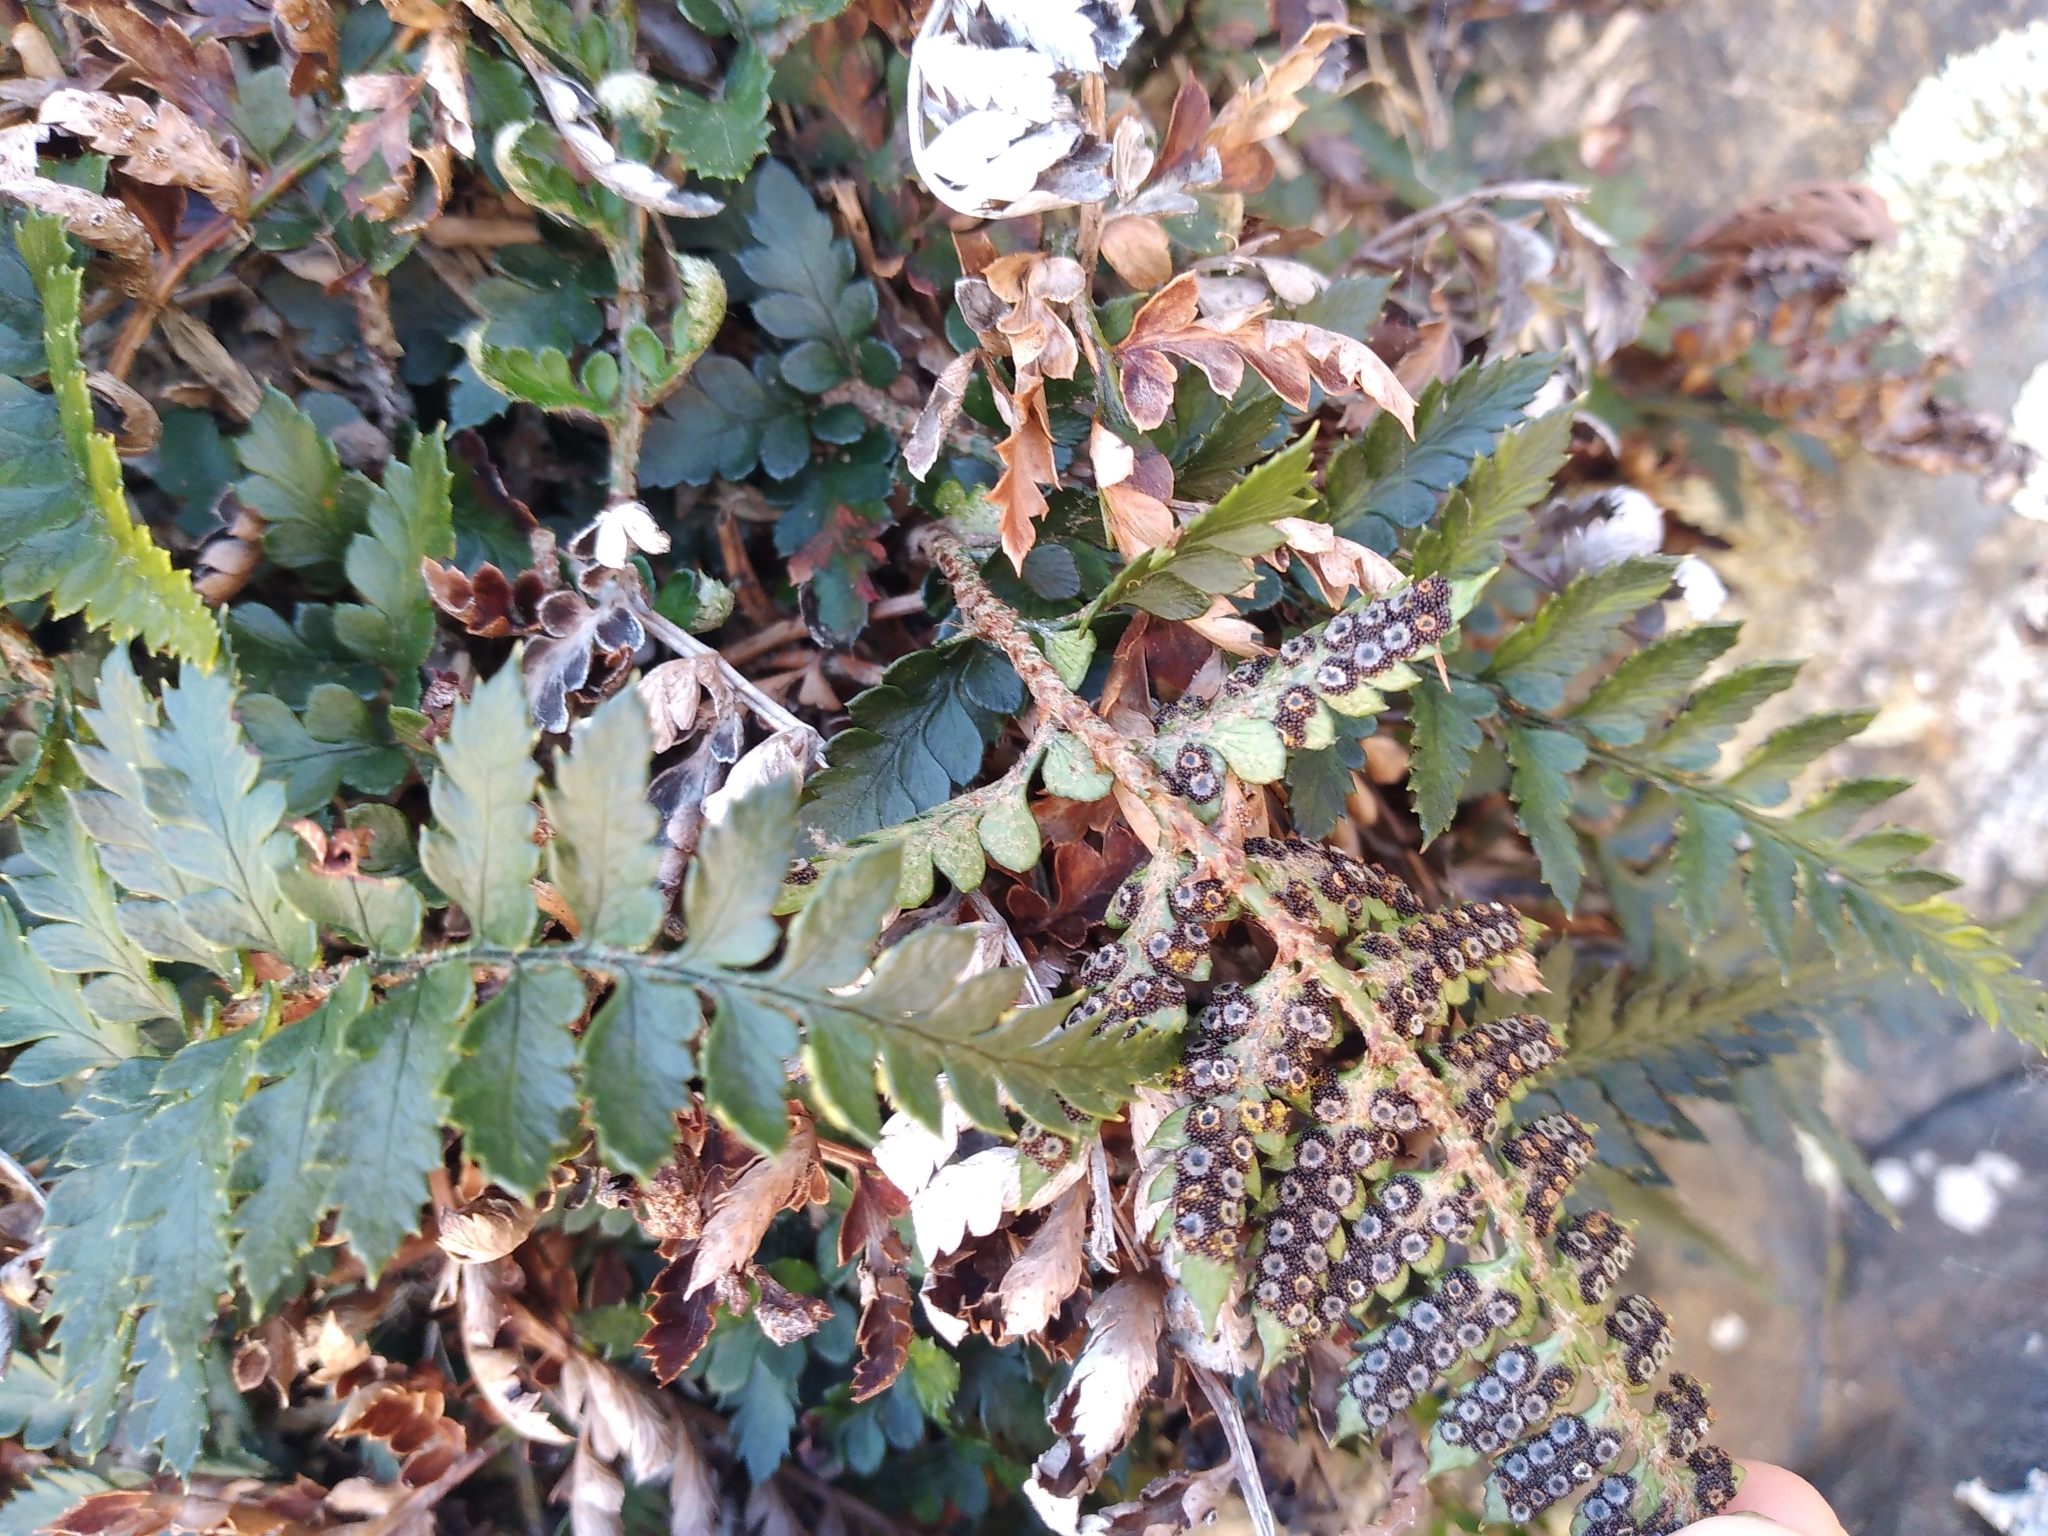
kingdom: Plantae
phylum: Tracheophyta
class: Polypodiopsida
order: Polypodiales
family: Dryopteridaceae
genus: Polystichum
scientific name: Polystichum oculatum
